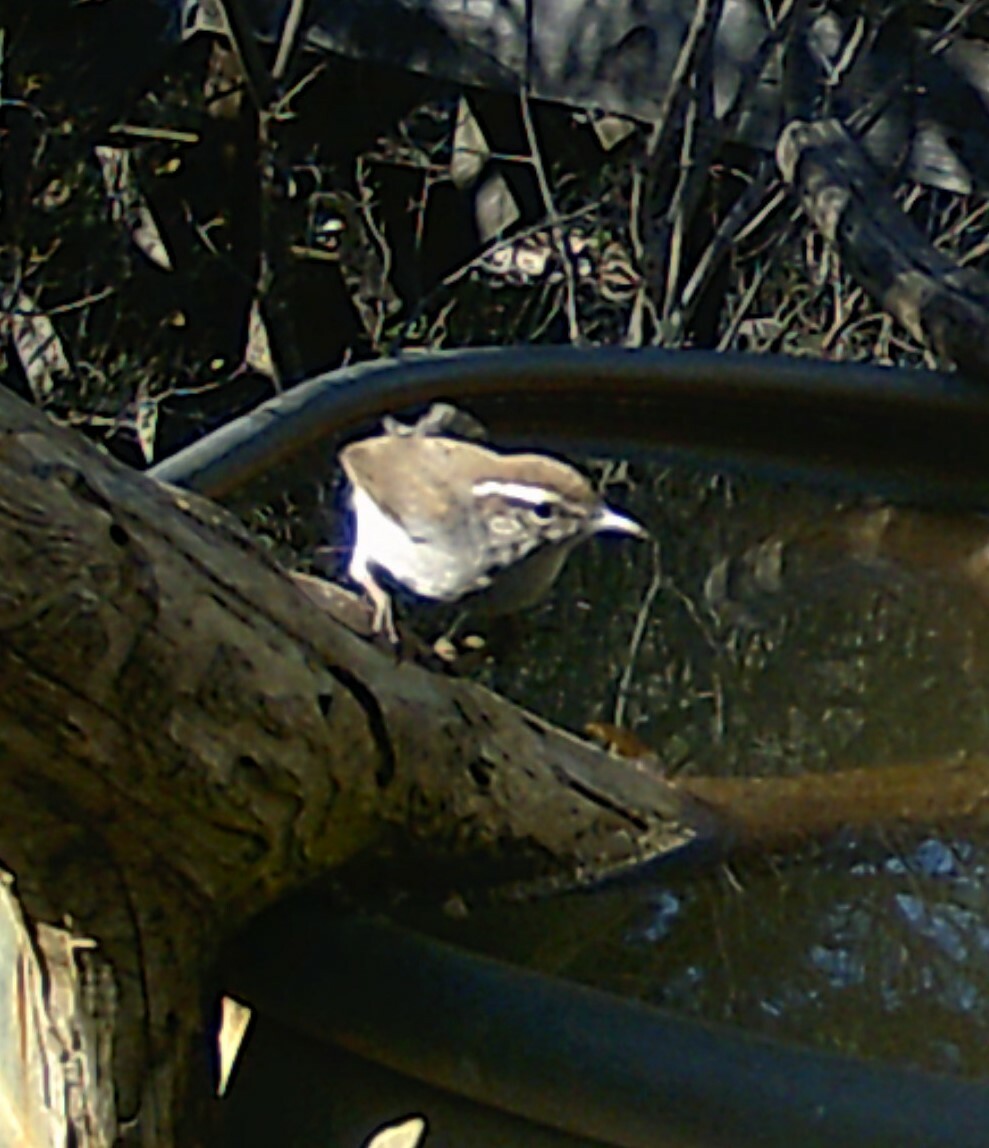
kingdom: Animalia
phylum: Chordata
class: Aves
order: Passeriformes
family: Troglodytidae
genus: Thryomanes
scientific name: Thryomanes bewickii
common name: Bewick's wren
